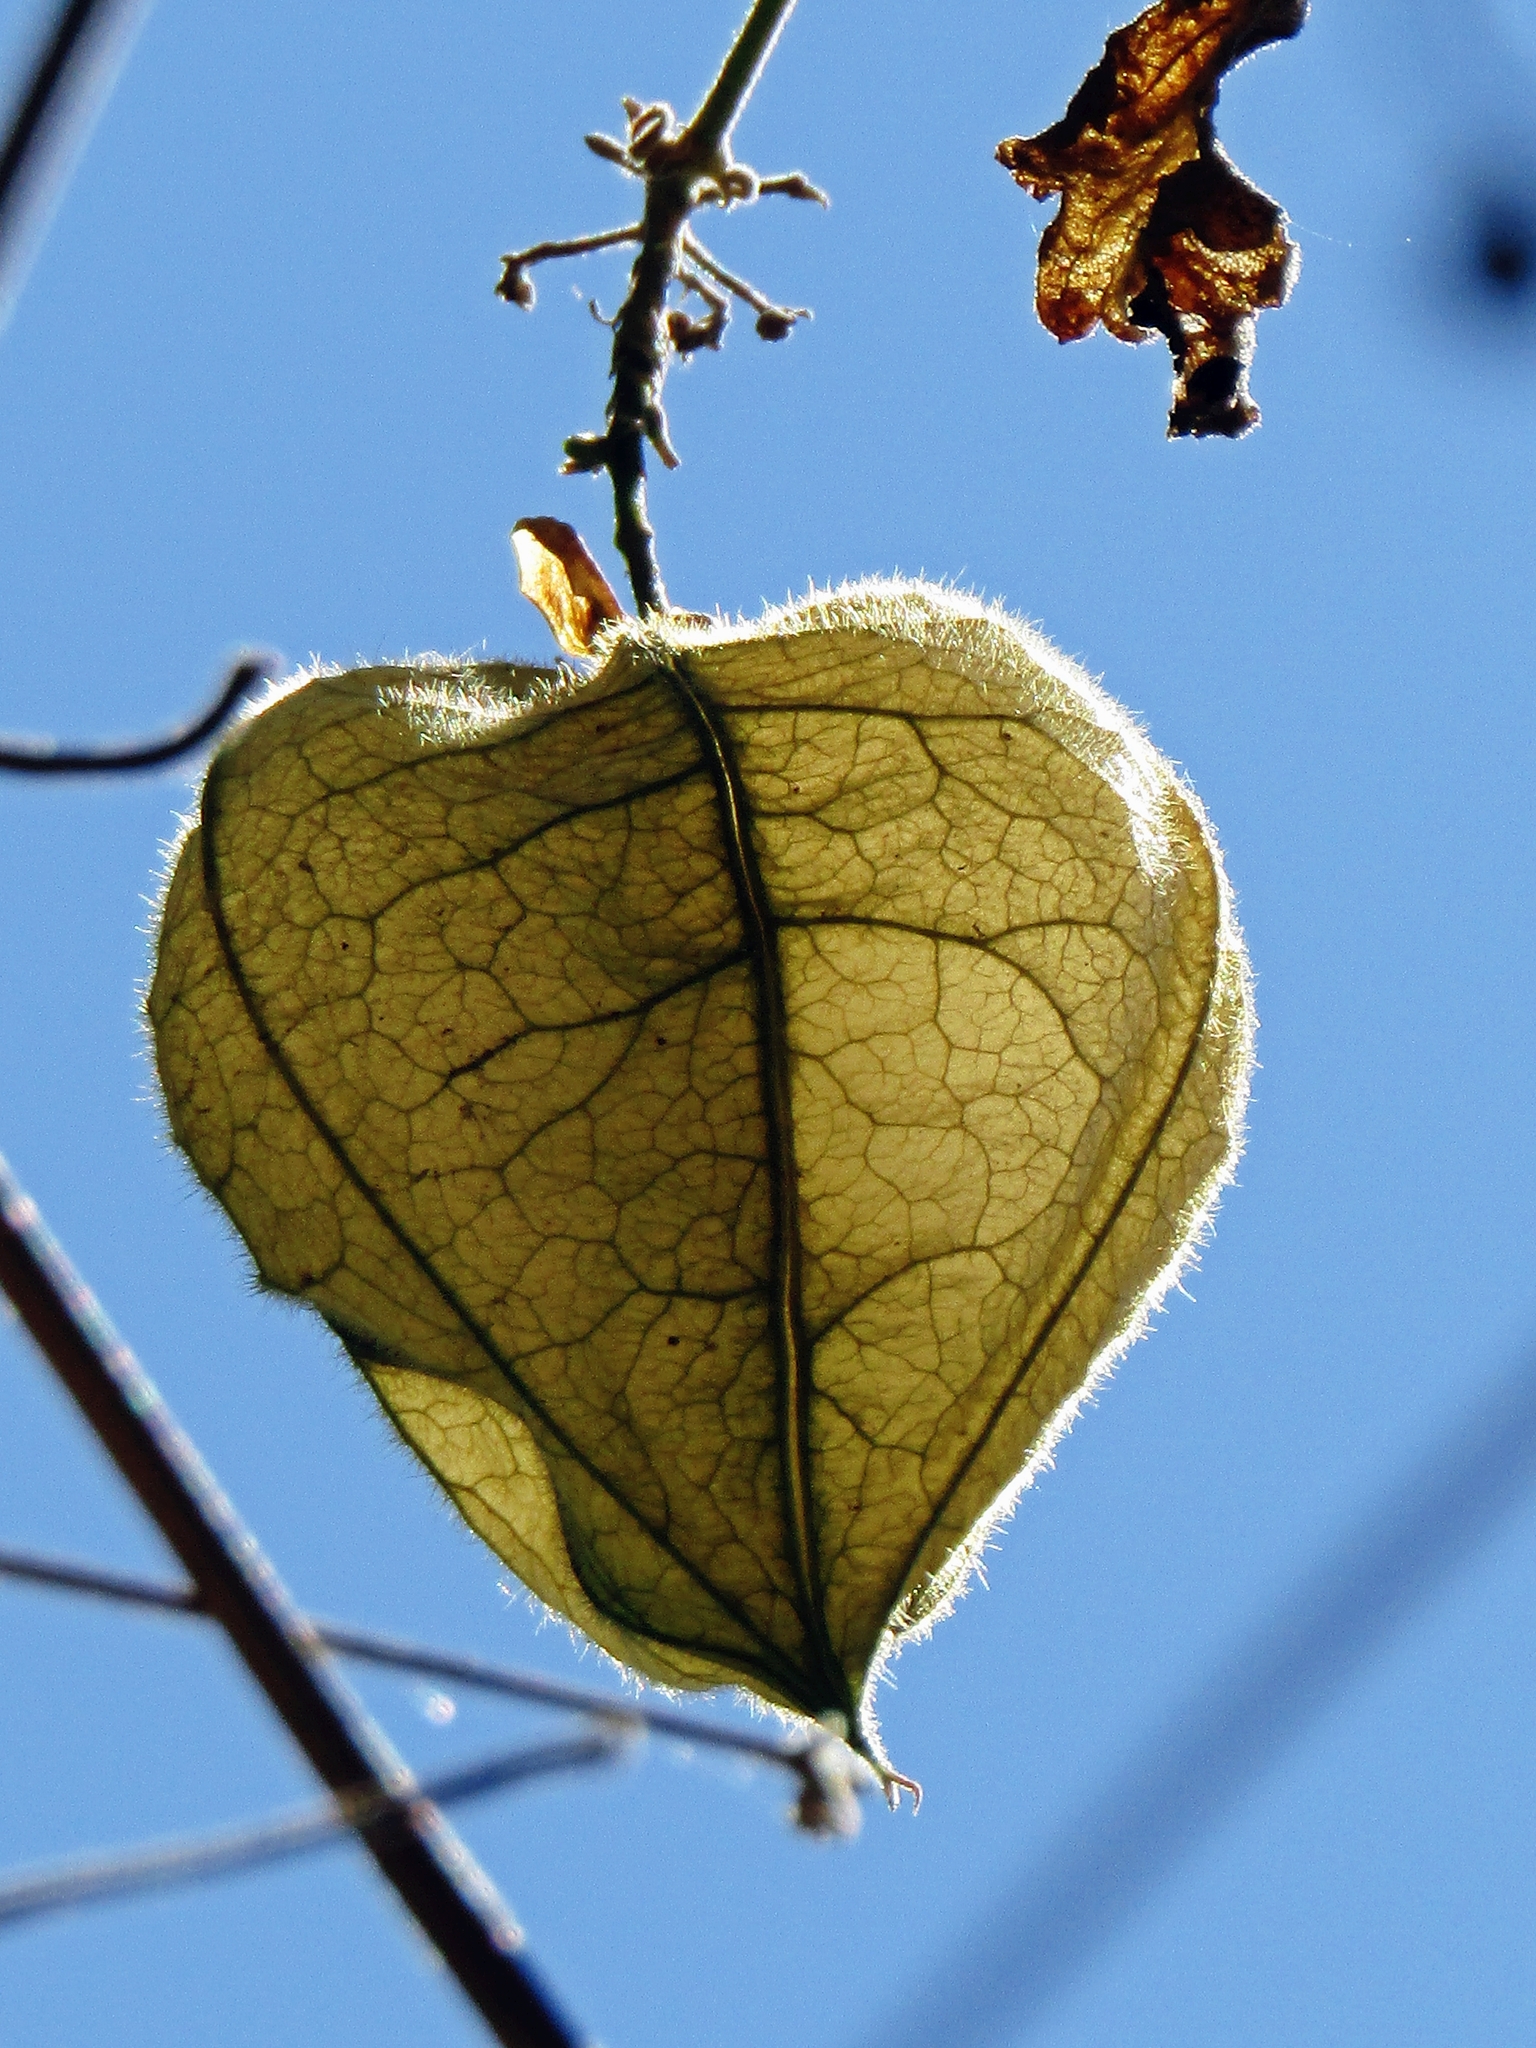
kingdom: Plantae
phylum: Tracheophyta
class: Magnoliopsida
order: Sapindales
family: Sapindaceae
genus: Cardiospermum
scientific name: Cardiospermum grandiflorum
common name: Balloon vine
